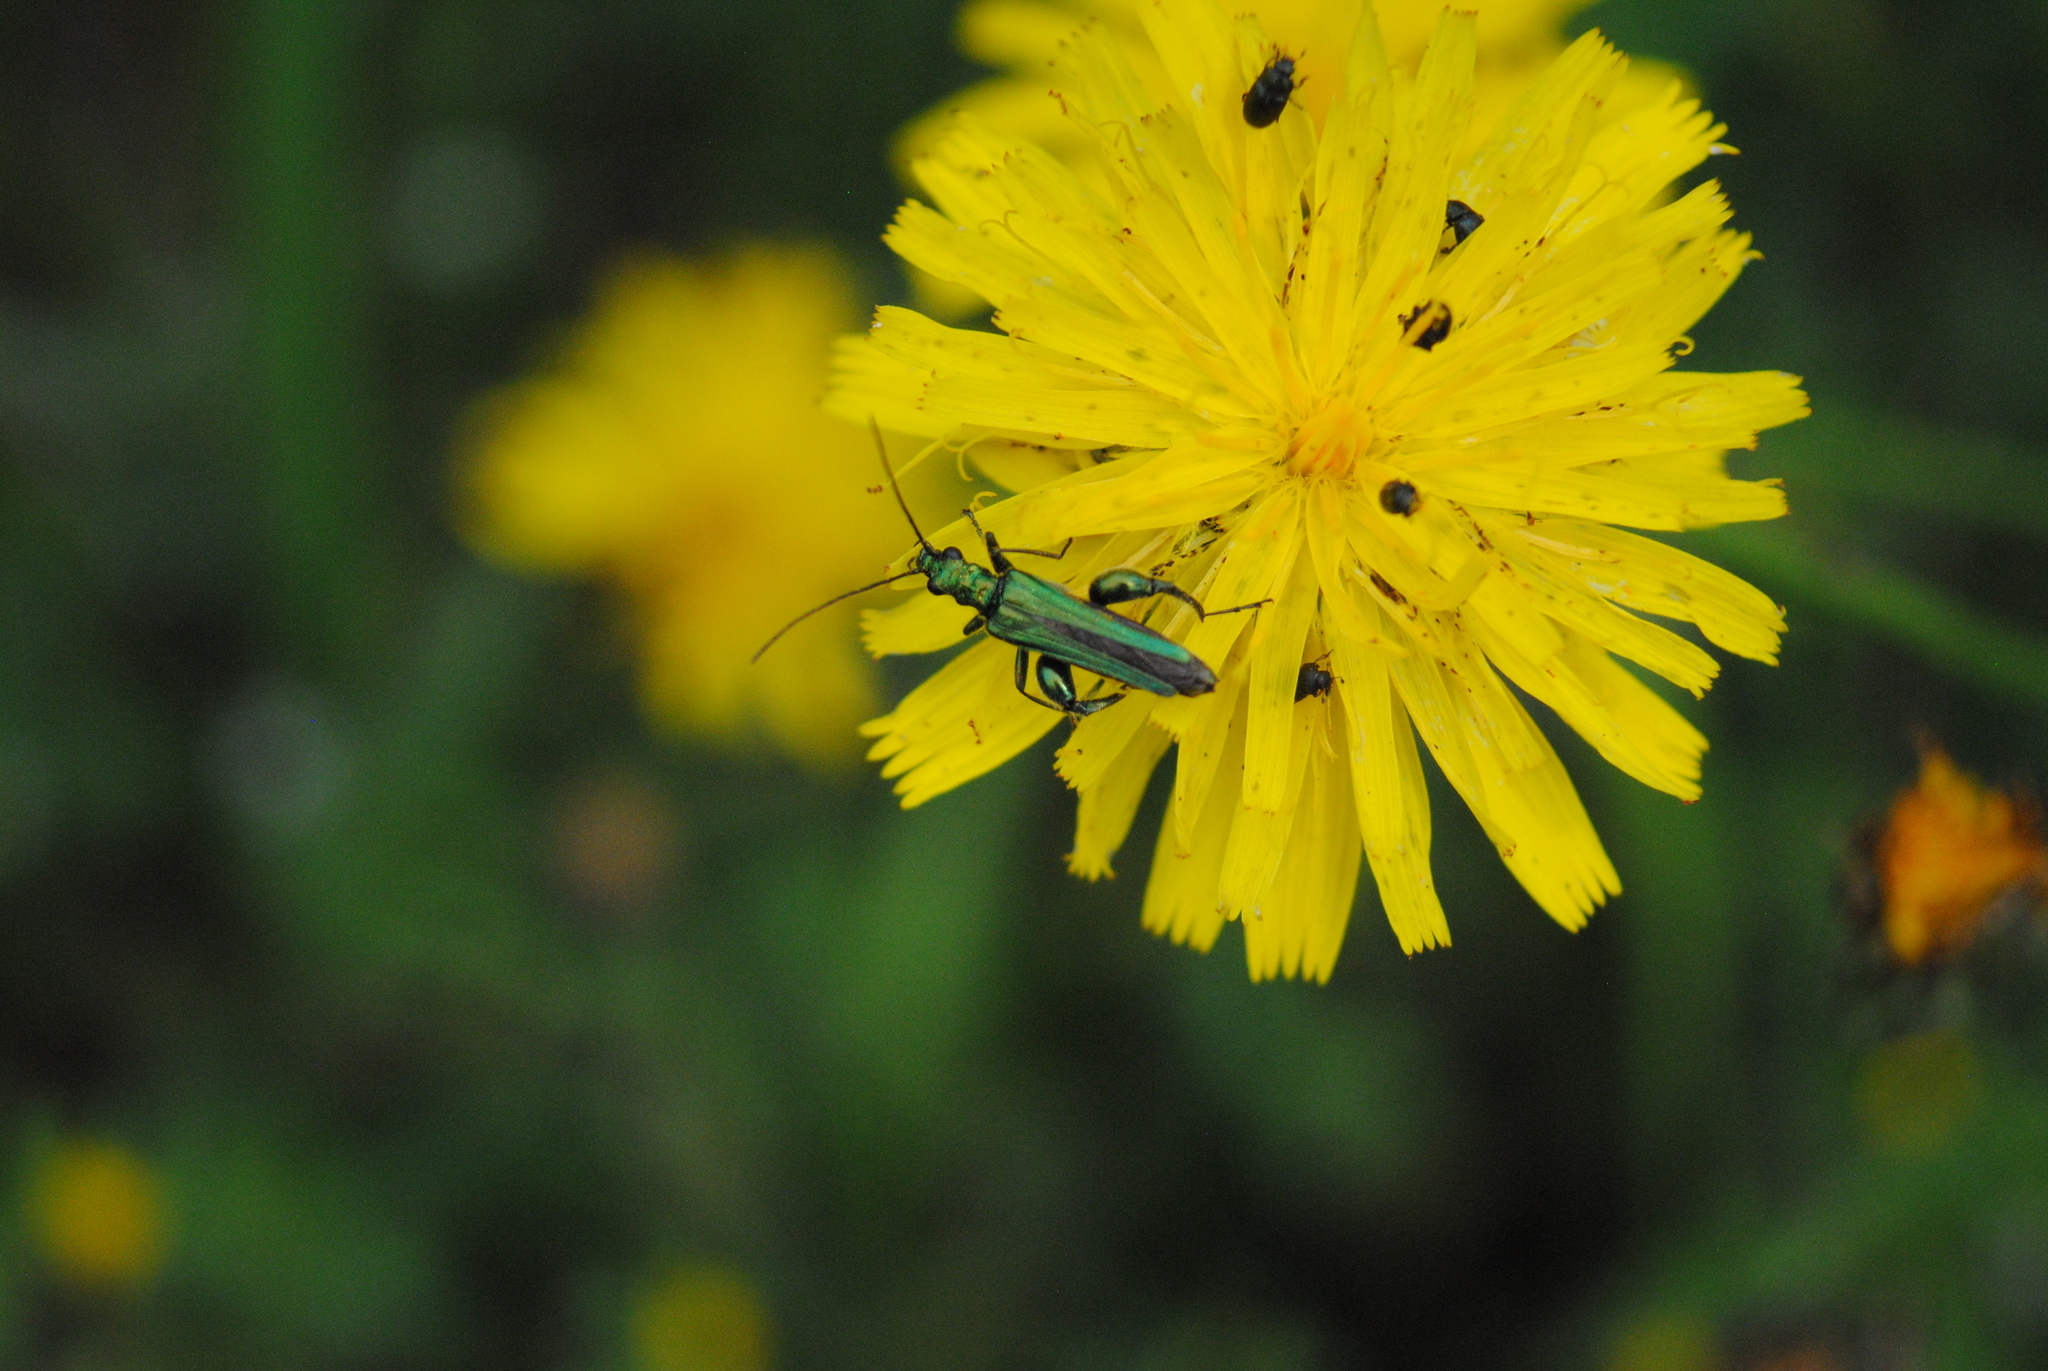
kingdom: Animalia
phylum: Arthropoda
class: Insecta
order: Coleoptera
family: Oedemeridae
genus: Oedemera
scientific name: Oedemera nobilis
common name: Swollen-thighed beetle
